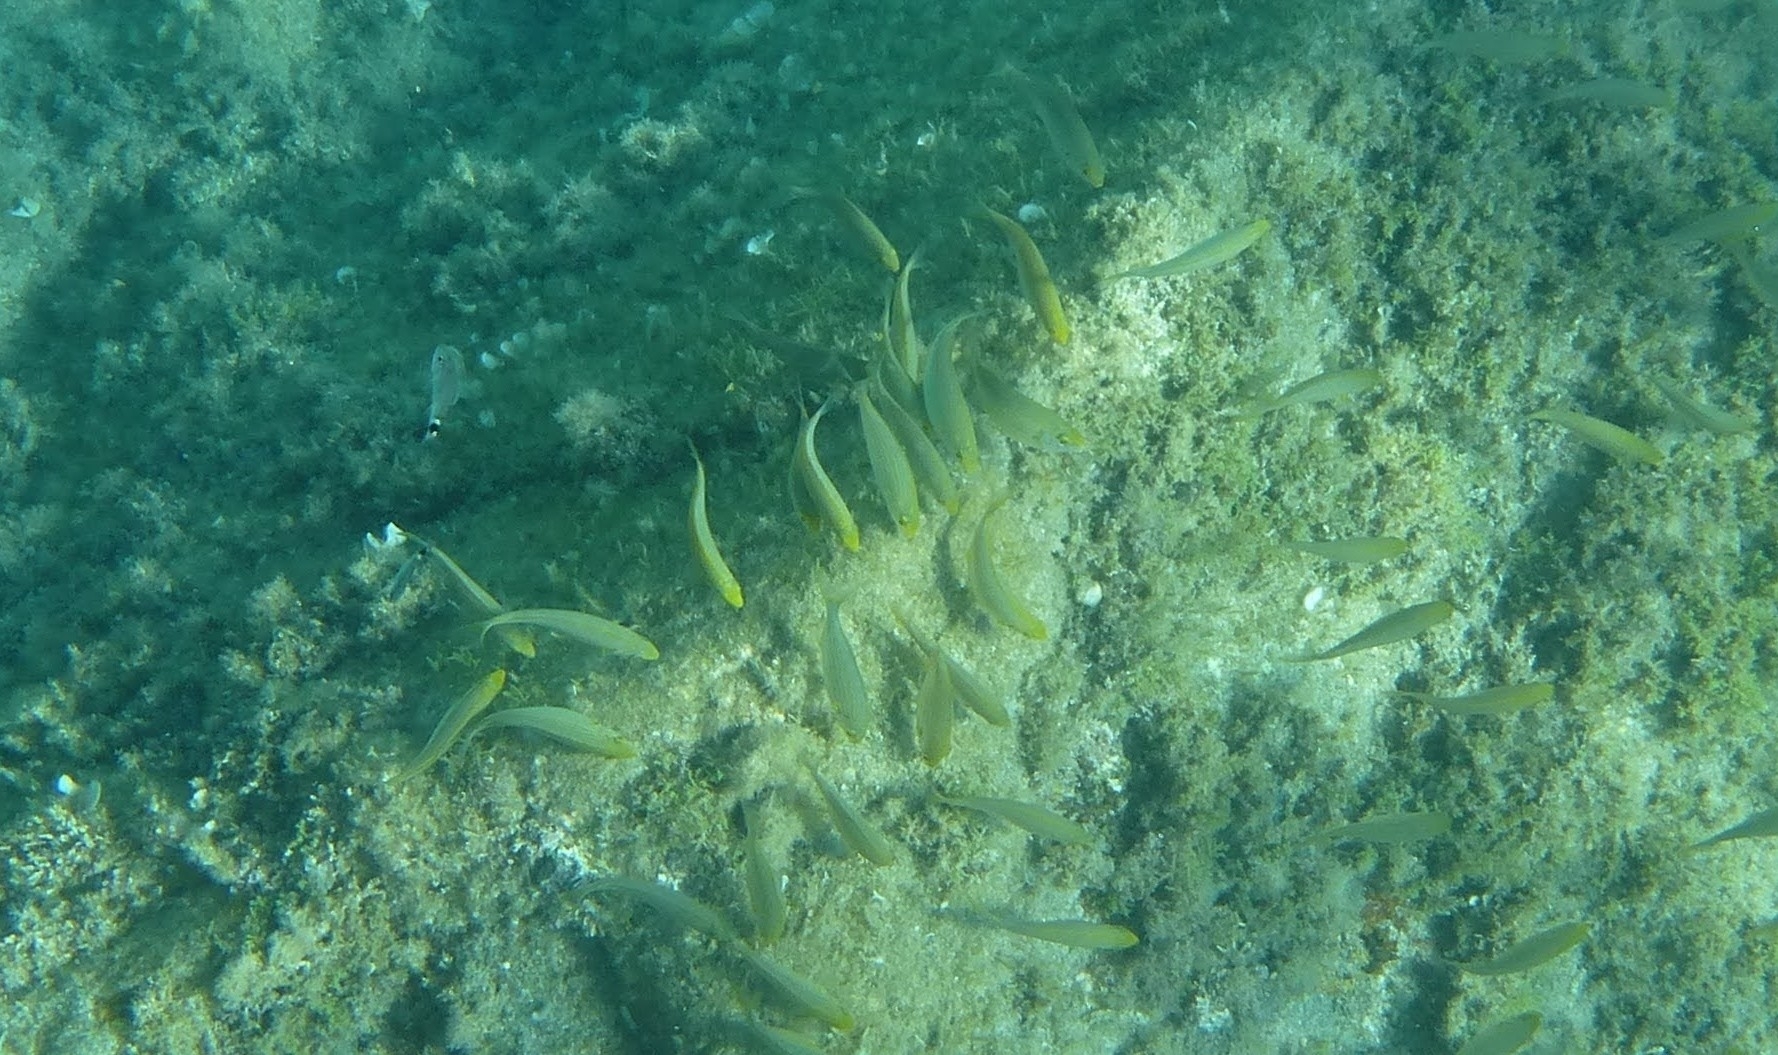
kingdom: Animalia
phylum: Chordata
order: Perciformes
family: Sparidae
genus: Sarpa
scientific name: Sarpa salpa
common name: Salema
